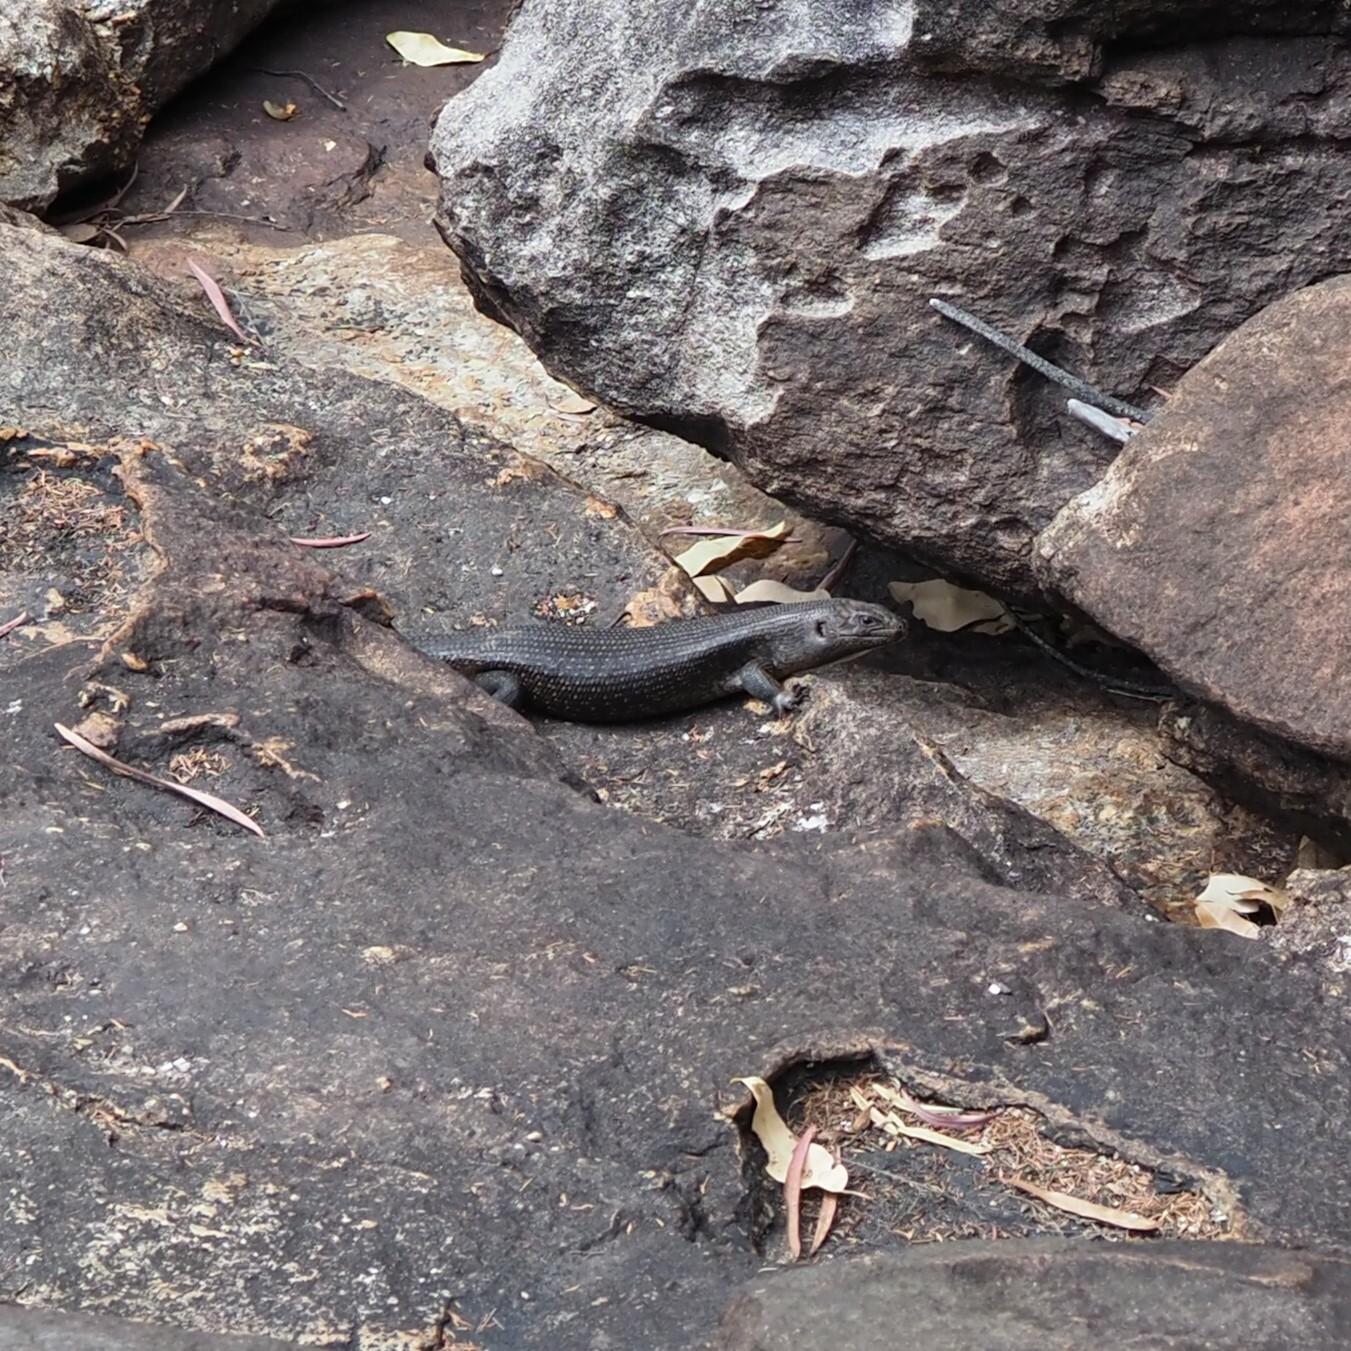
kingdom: Animalia
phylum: Chordata
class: Squamata
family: Scincidae
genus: Egernia
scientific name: Egernia kingii
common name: King's skink
